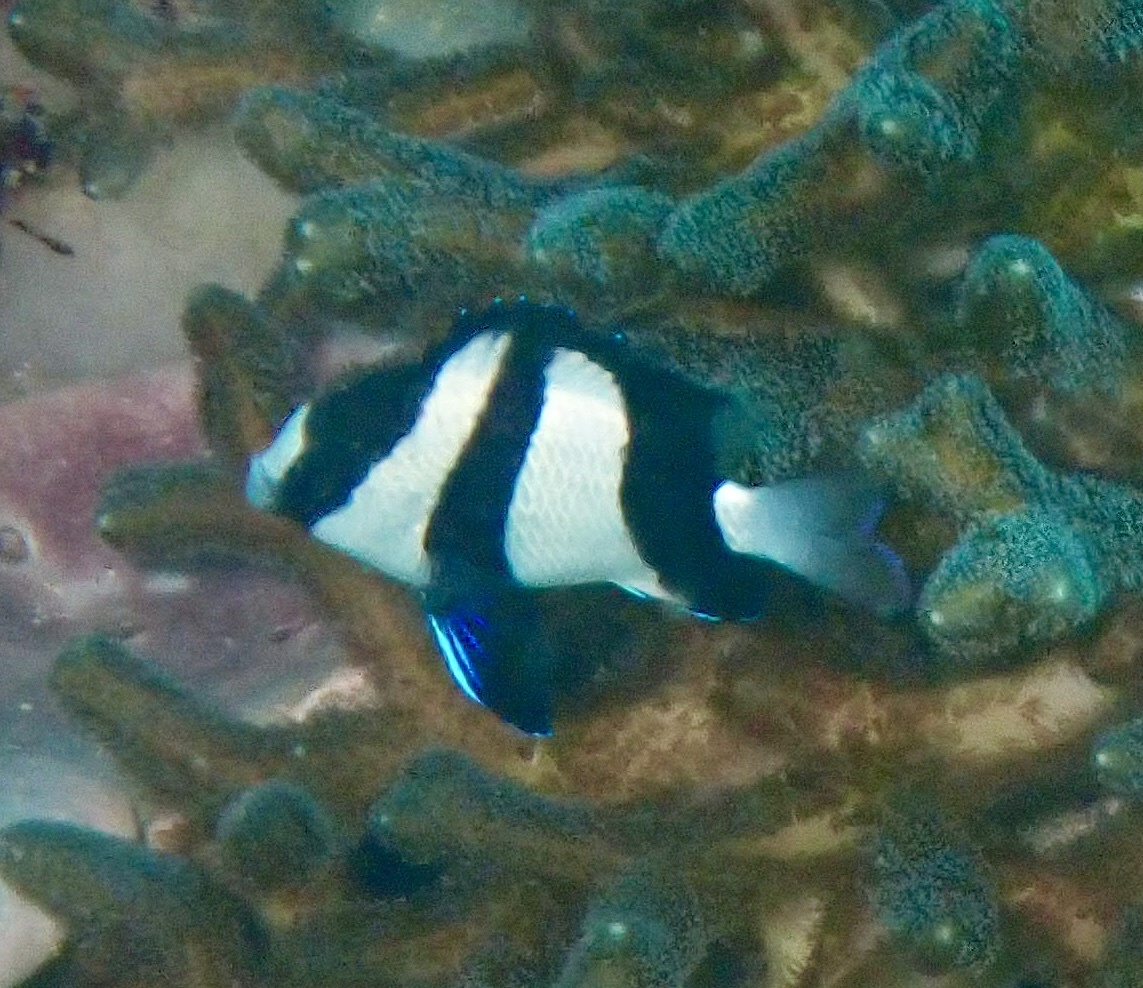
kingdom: Animalia
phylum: Chordata
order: Perciformes
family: Pomacentridae
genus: Dascyllus
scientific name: Dascyllus aruanus
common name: Humbug dascyllus
